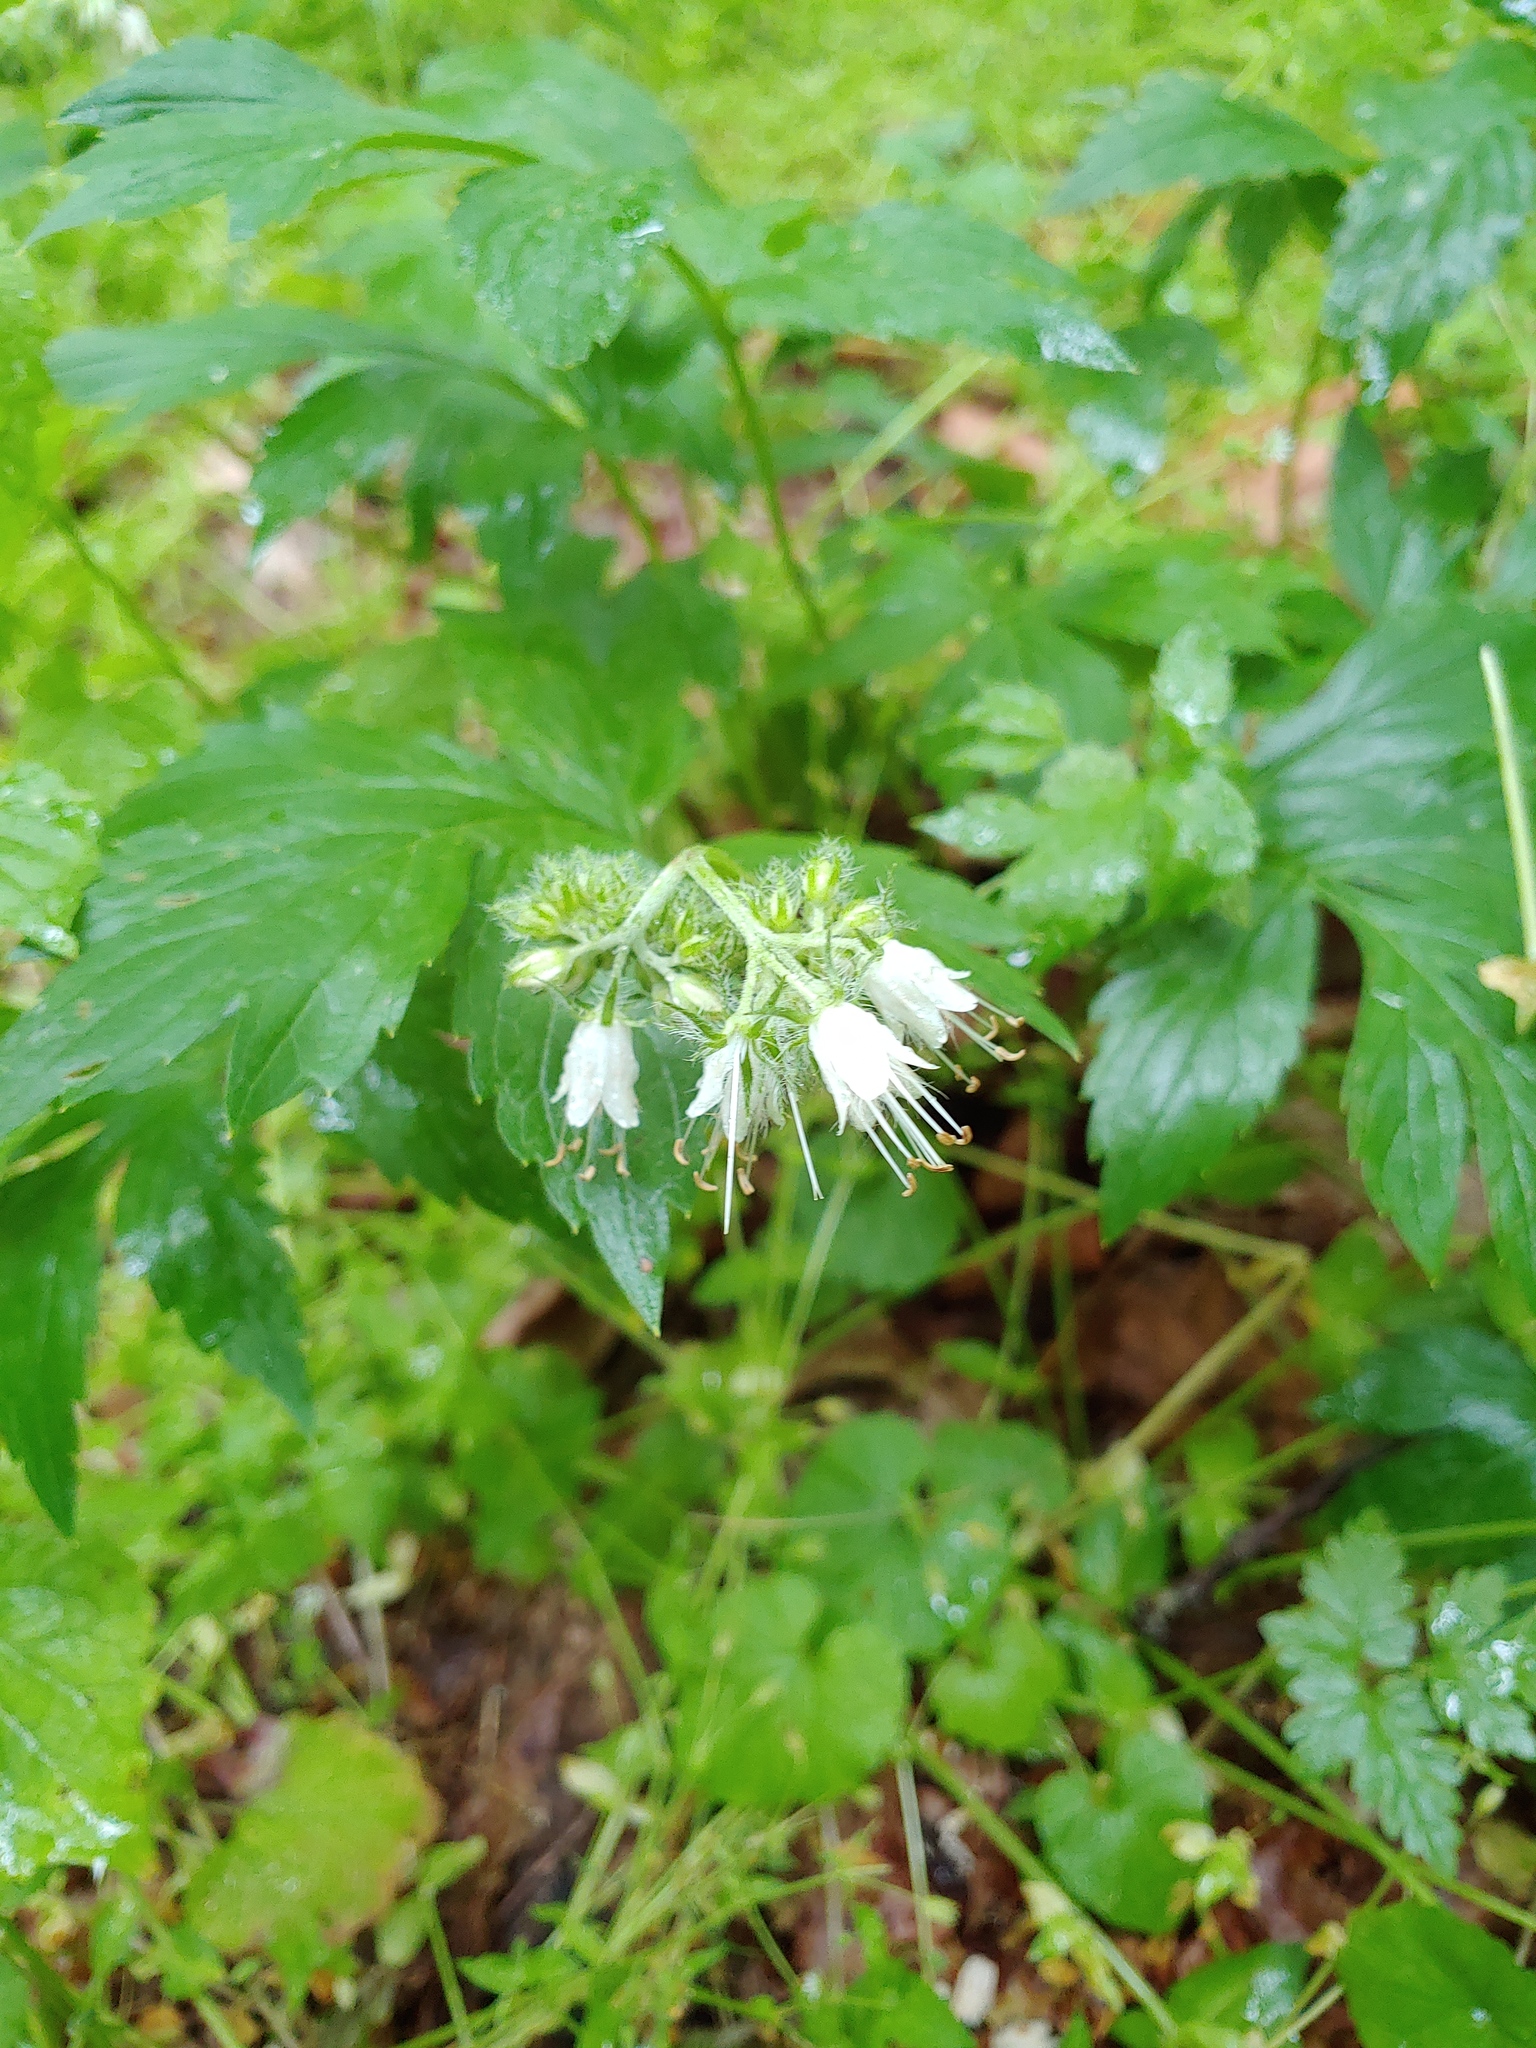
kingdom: Plantae
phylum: Tracheophyta
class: Magnoliopsida
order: Boraginales
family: Hydrophyllaceae
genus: Hydrophyllum
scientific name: Hydrophyllum virginianum
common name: Virginia waterleaf
